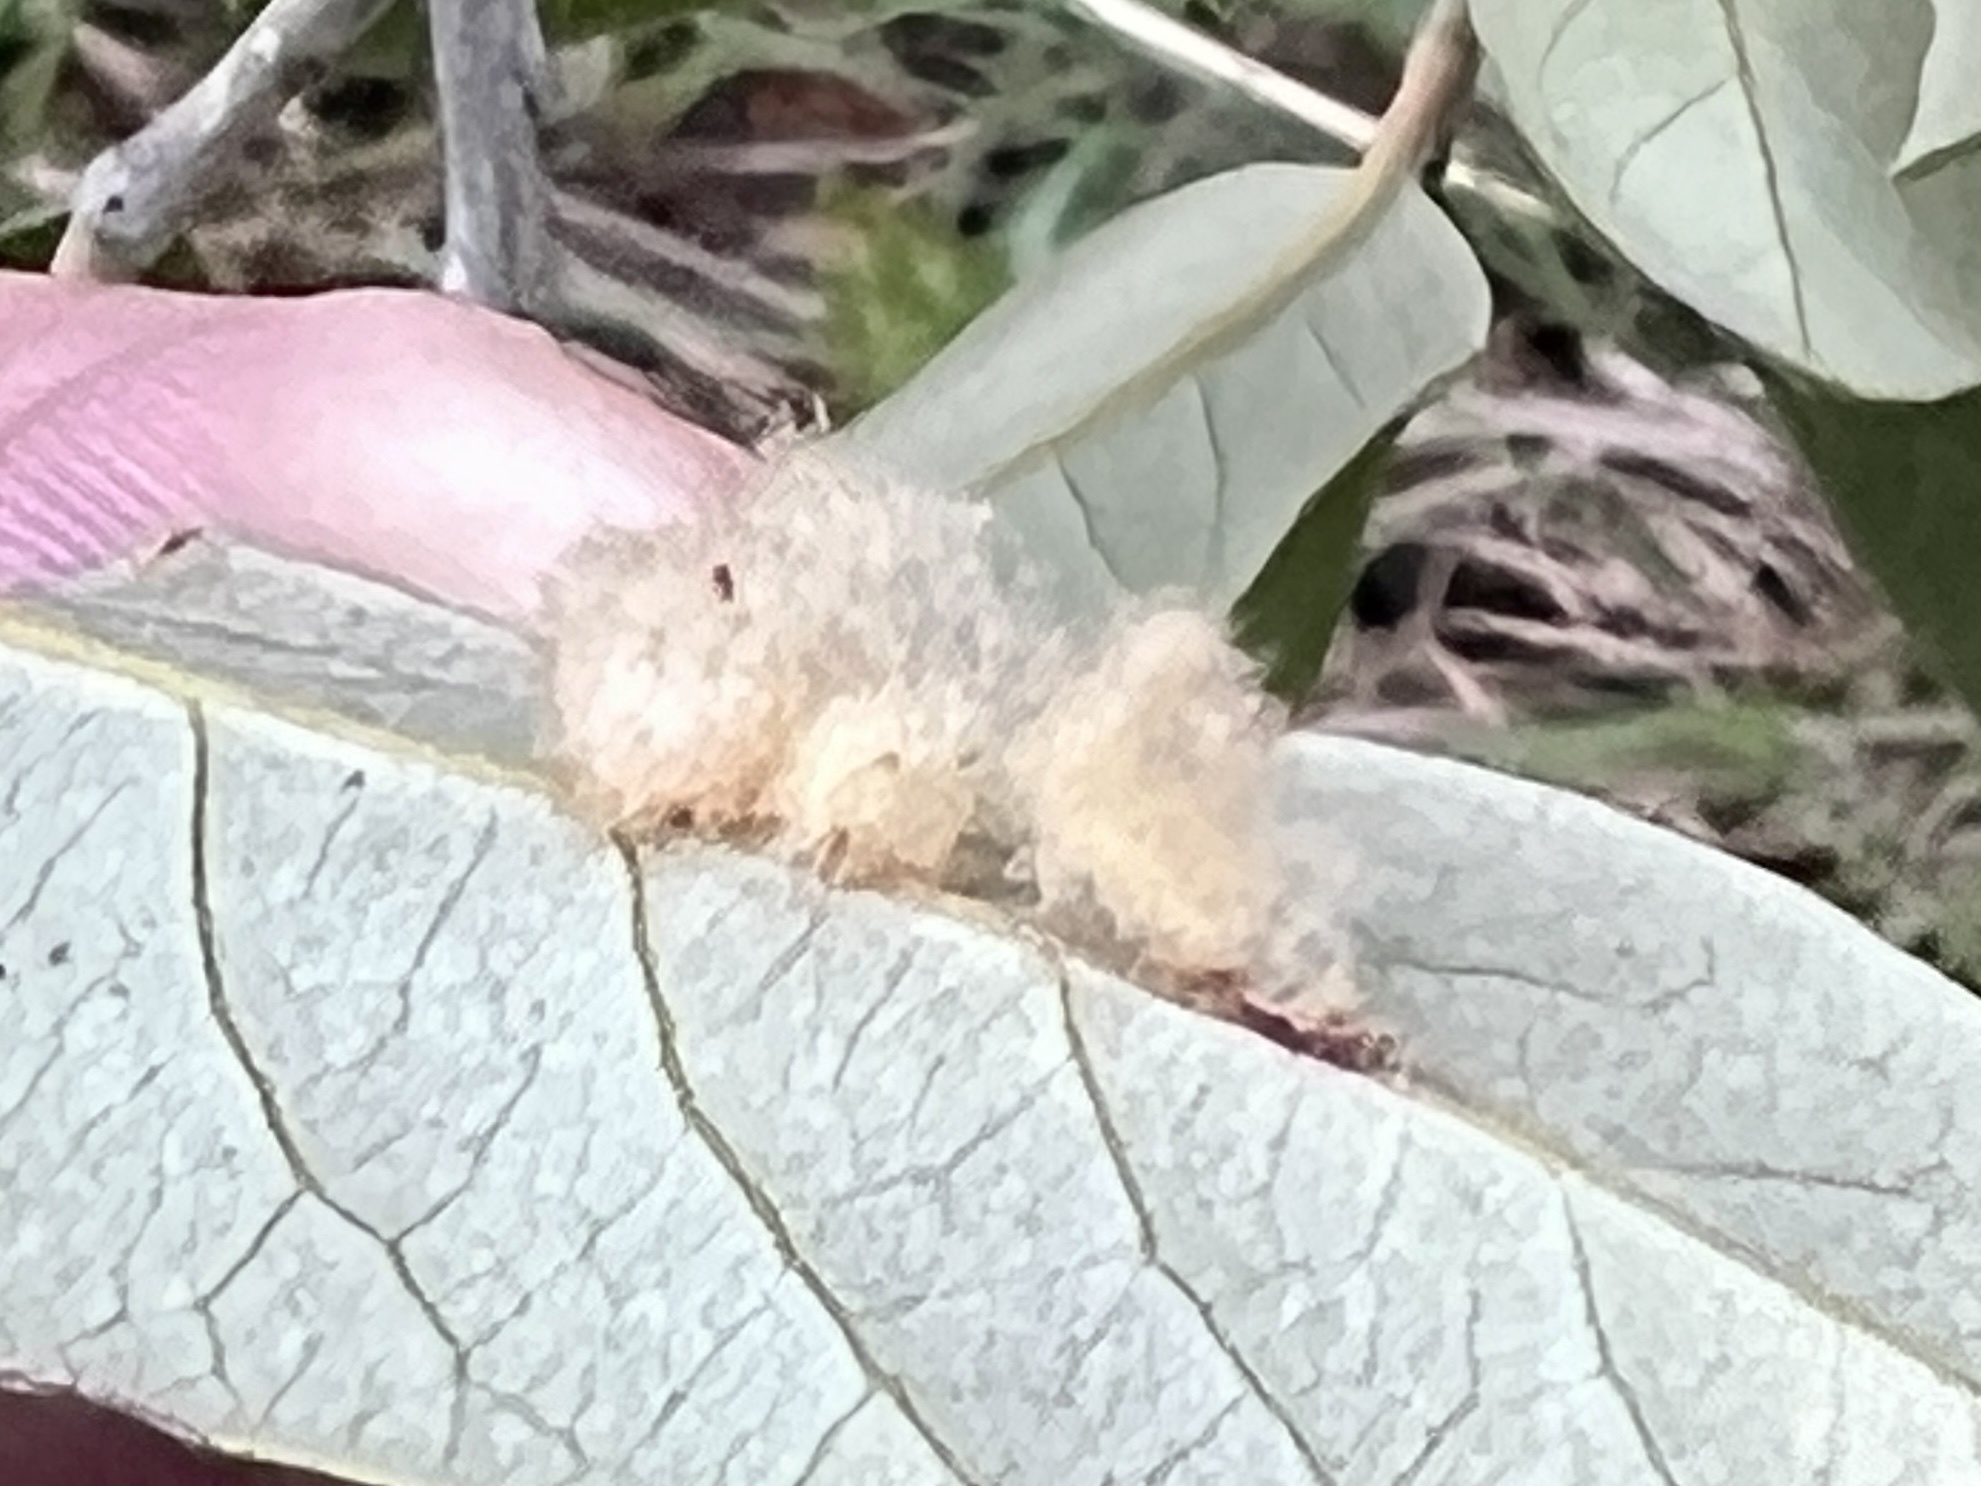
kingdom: Animalia
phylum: Arthropoda
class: Insecta
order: Hymenoptera
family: Cynipidae
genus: Andricus
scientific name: Andricus Druon quercuslanigerum
